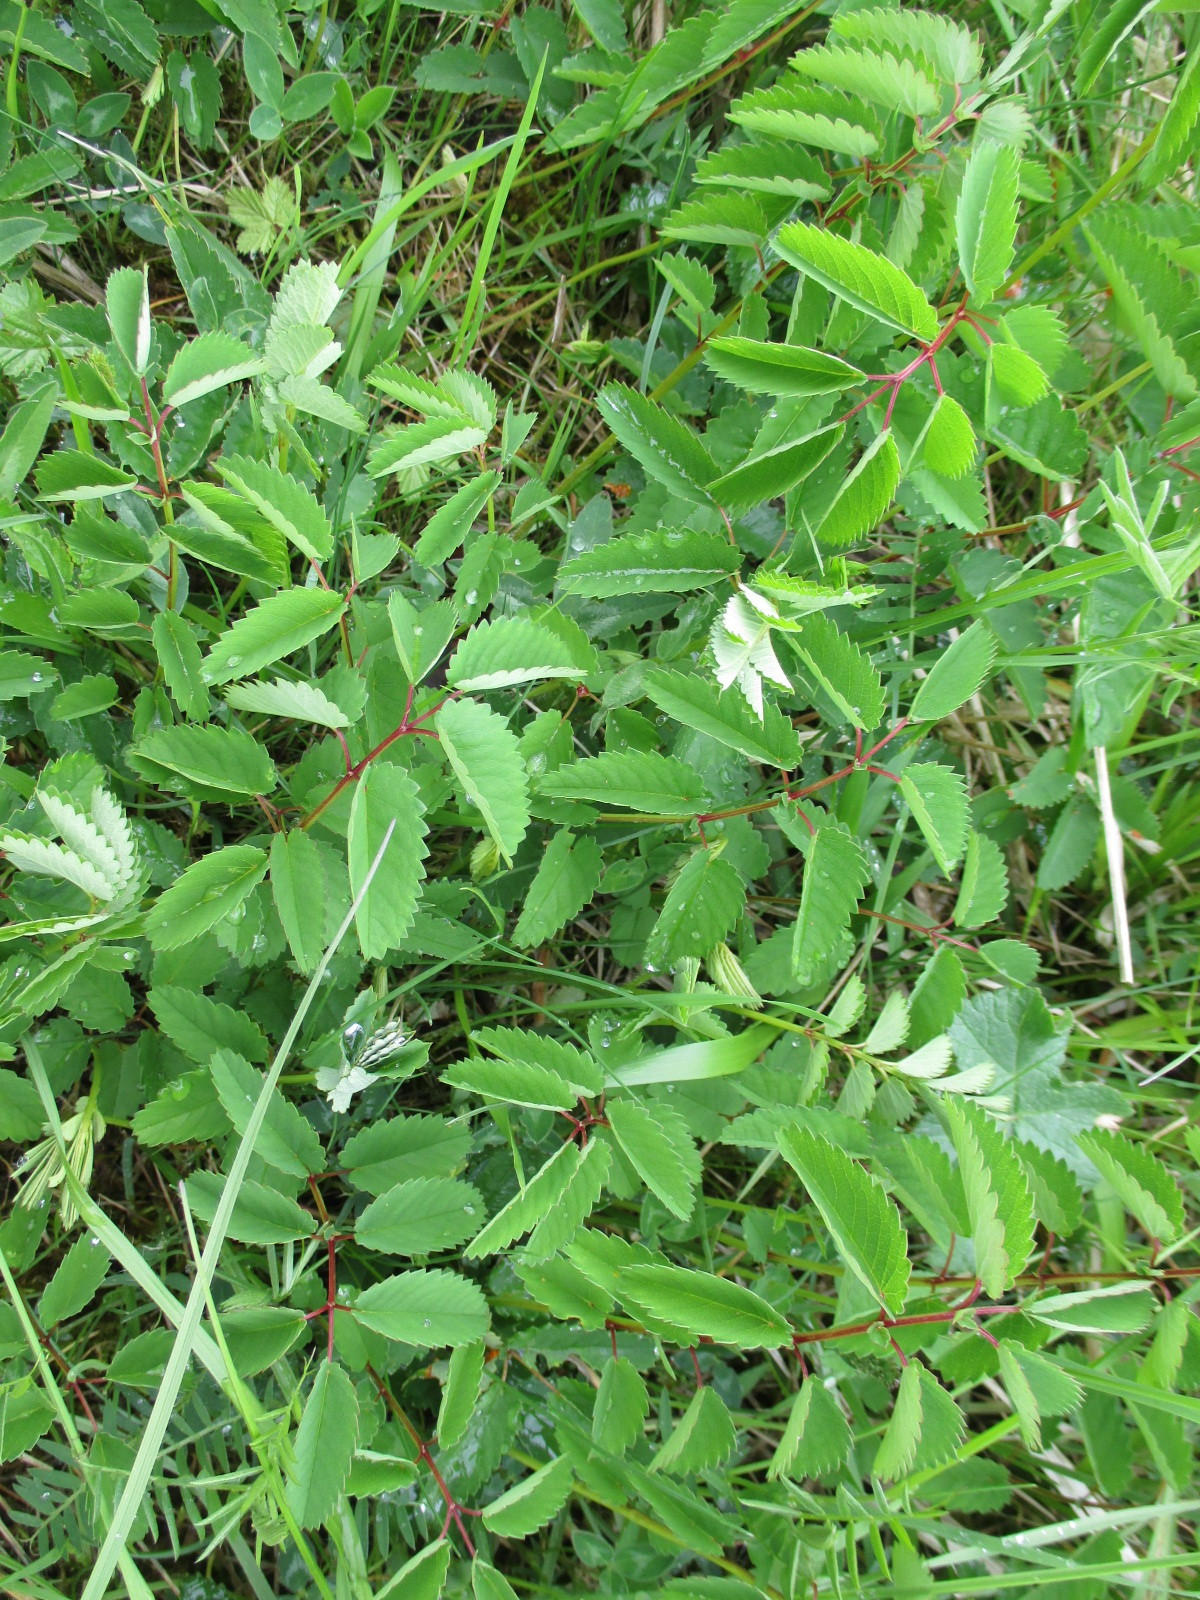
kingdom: Plantae
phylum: Tracheophyta
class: Magnoliopsida
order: Rosales
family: Rosaceae
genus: Sanguisorba
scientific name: Sanguisorba officinalis
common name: Great burnet
